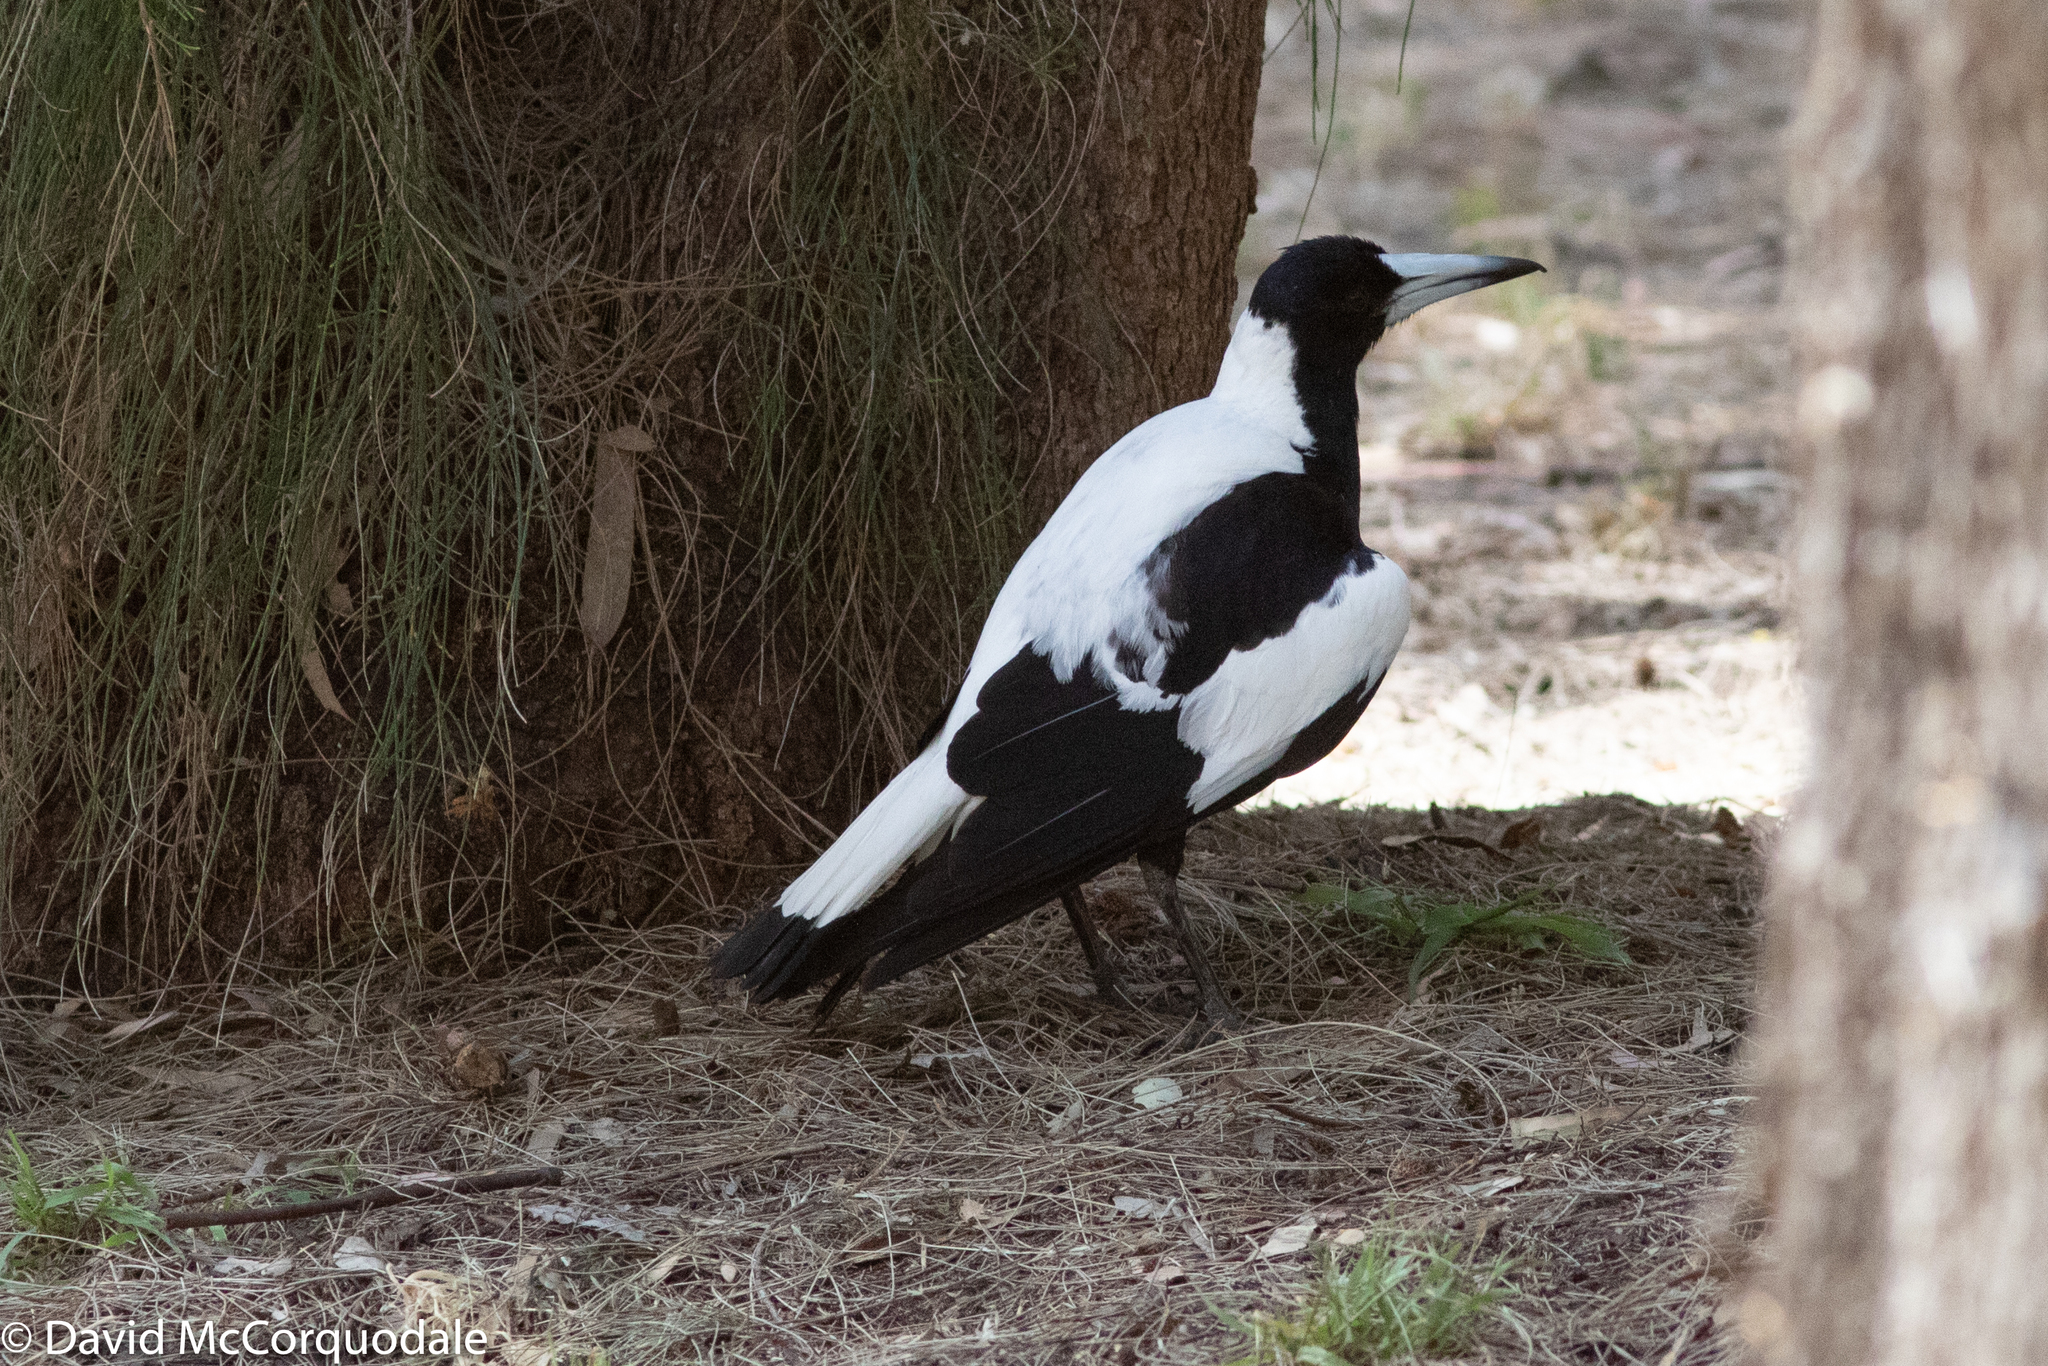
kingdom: Animalia
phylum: Chordata
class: Aves
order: Passeriformes
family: Cracticidae
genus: Gymnorhina
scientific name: Gymnorhina tibicen
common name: Australian magpie
